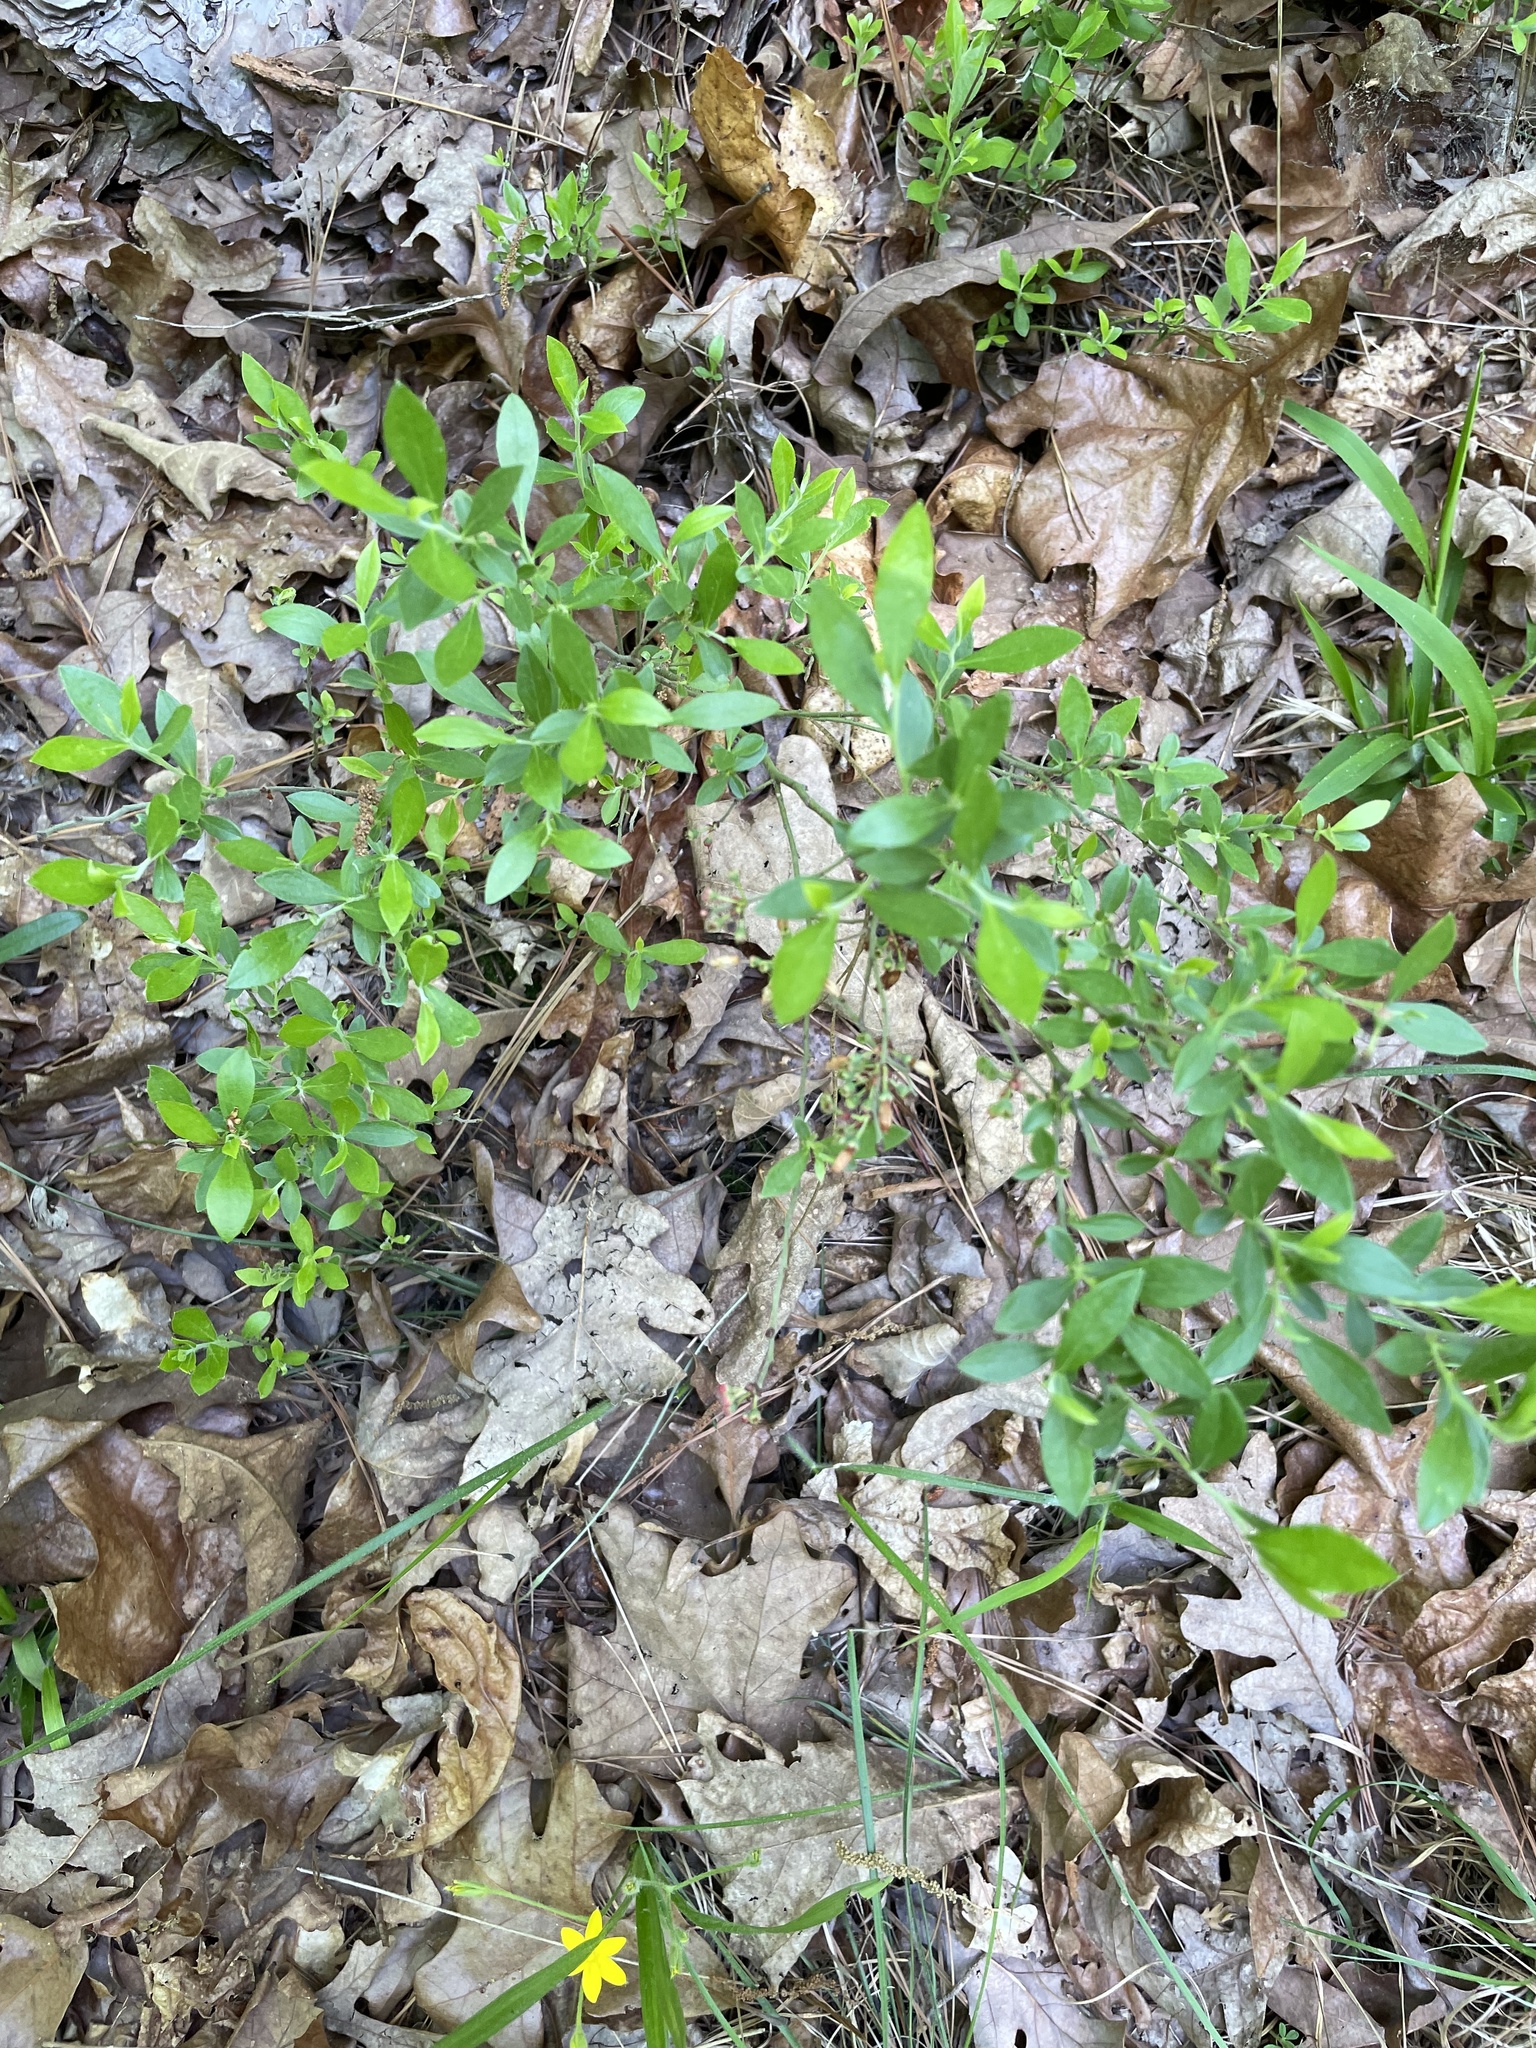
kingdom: Plantae
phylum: Tracheophyta
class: Magnoliopsida
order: Ericales
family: Ericaceae
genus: Vaccinium
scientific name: Vaccinium tenellum
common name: Southern blueberry
